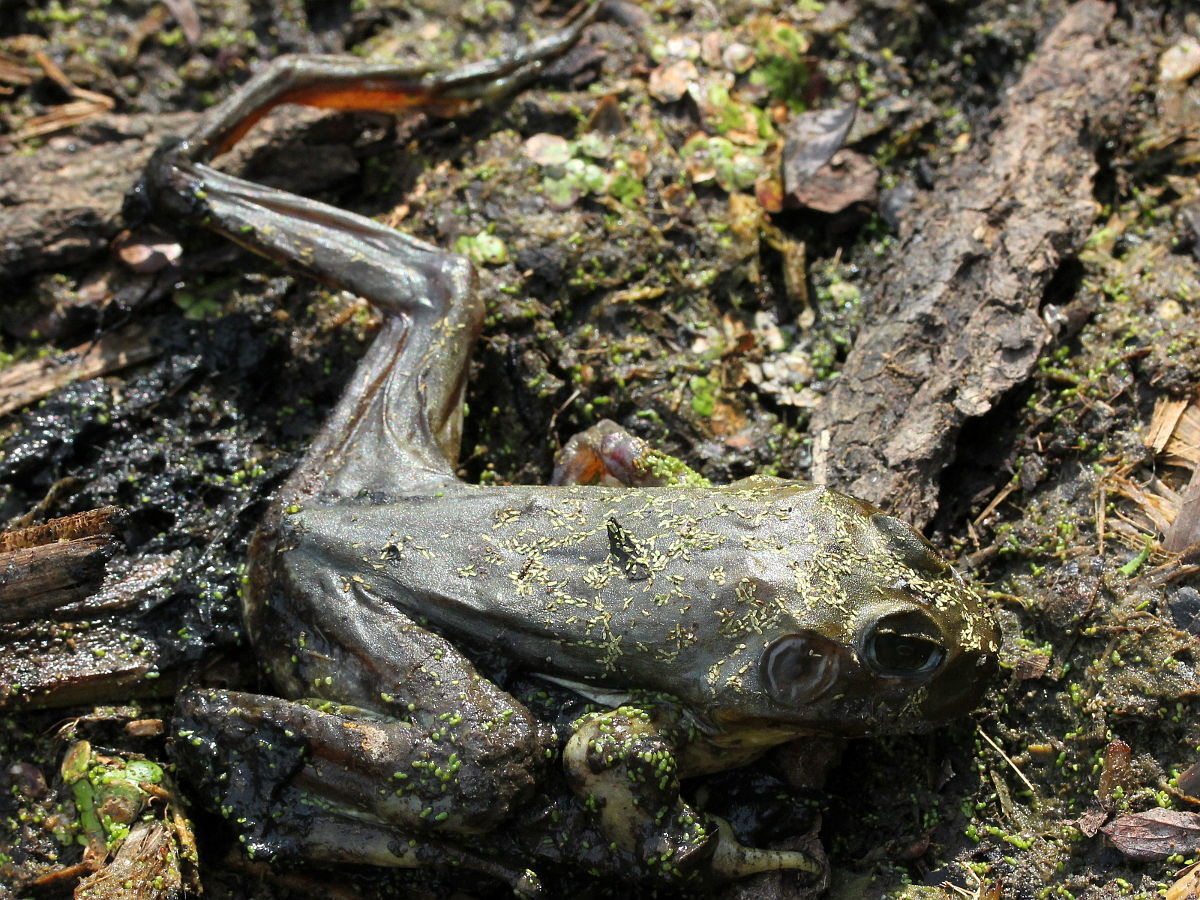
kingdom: Animalia
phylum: Chordata
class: Amphibia
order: Anura
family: Ranidae
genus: Lithobates
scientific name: Lithobates catesbeianus
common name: American bullfrog
